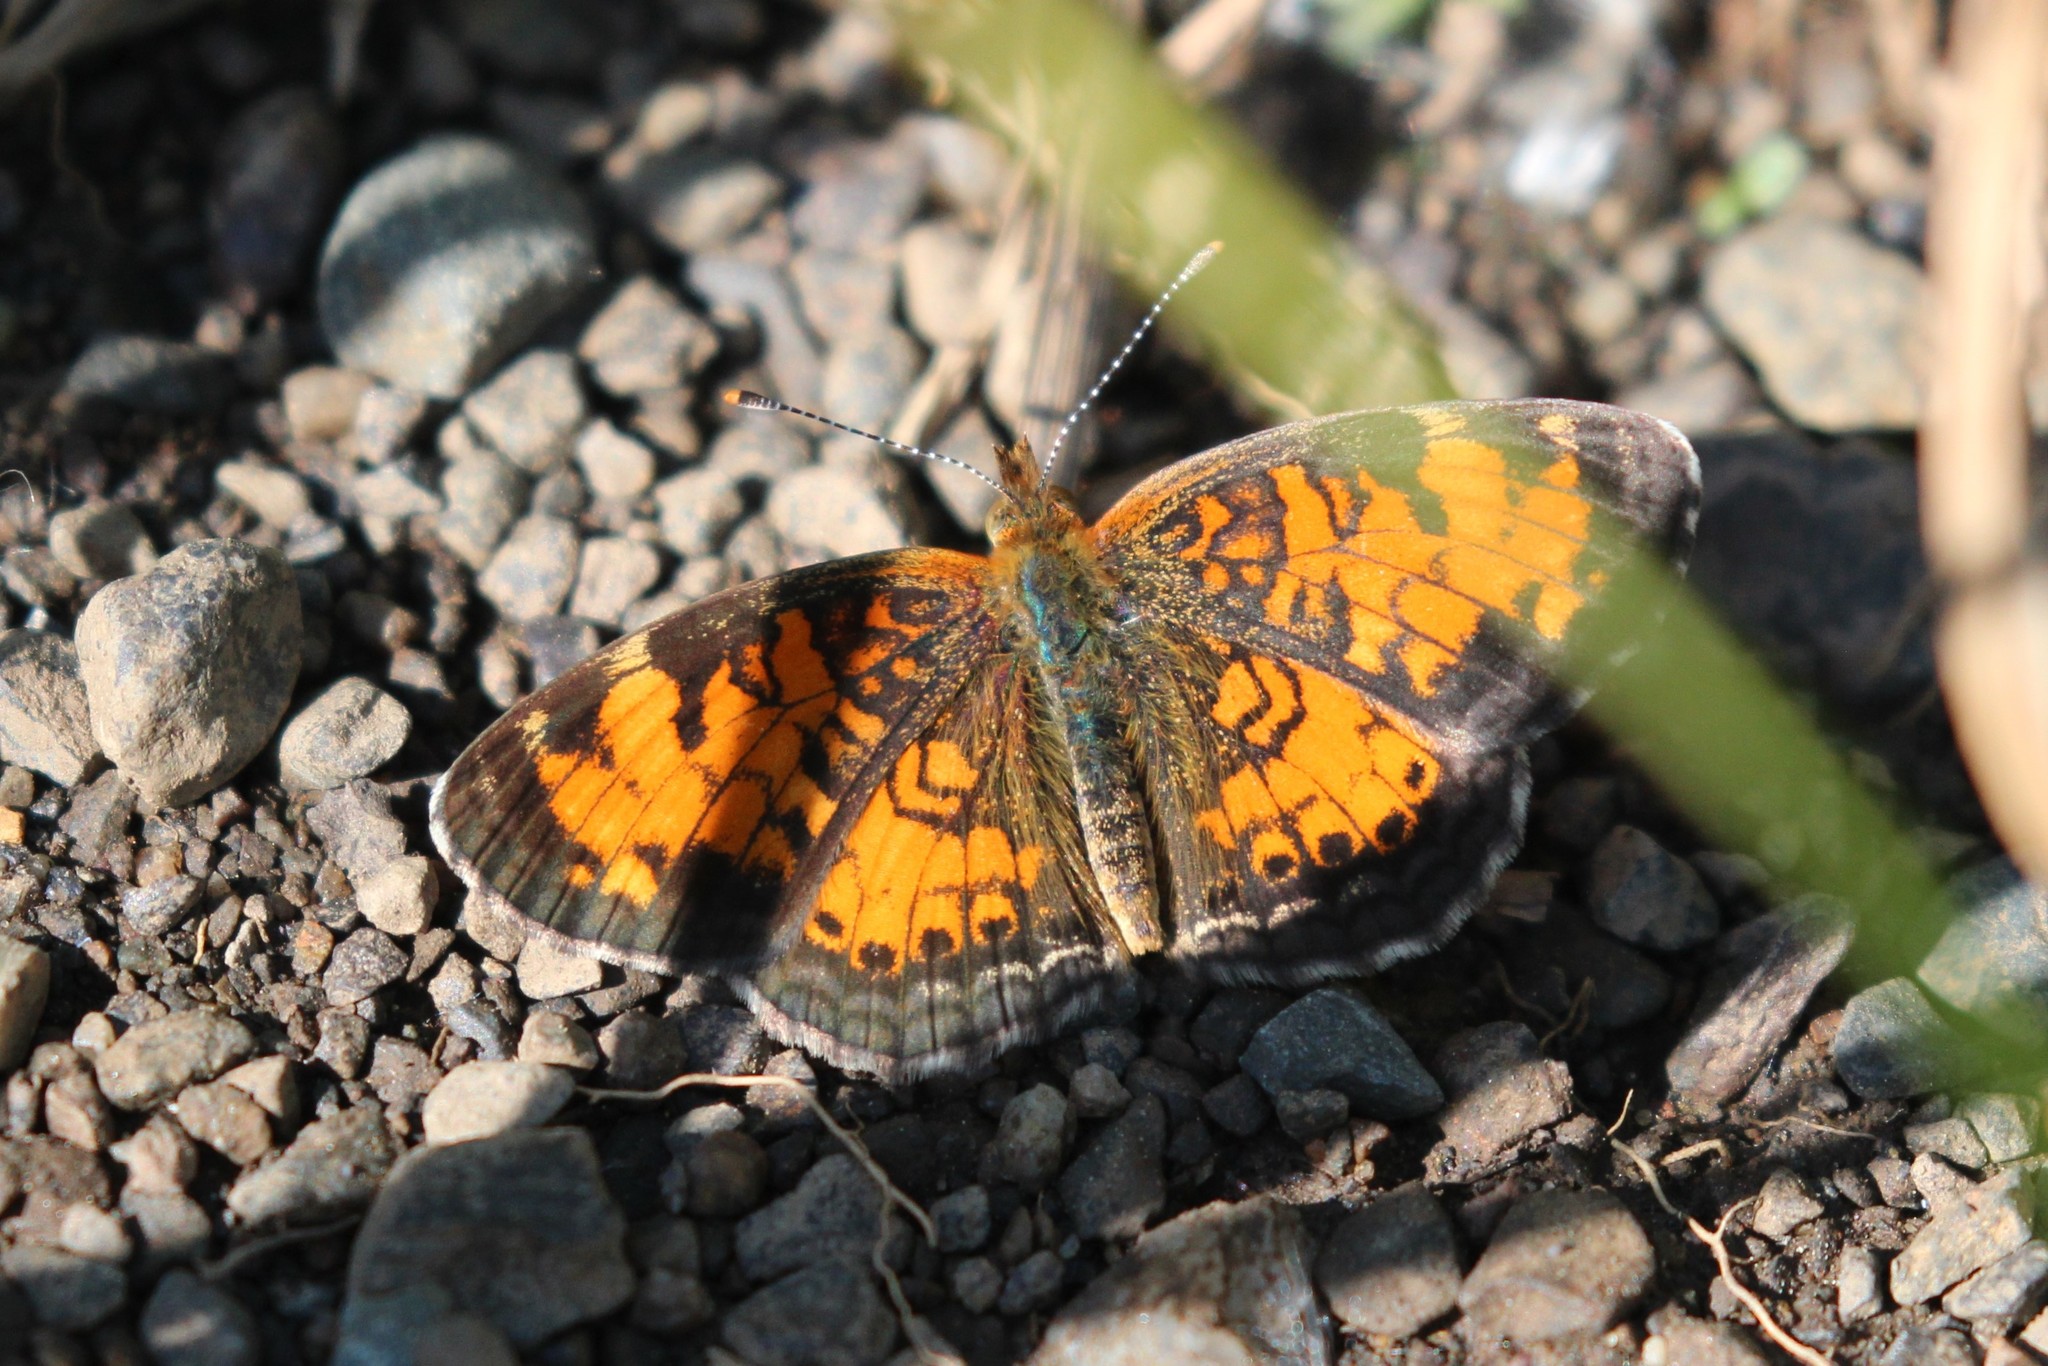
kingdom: Animalia
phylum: Arthropoda
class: Insecta
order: Lepidoptera
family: Nymphalidae
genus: Phyciodes
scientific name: Phyciodes tharos
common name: Pearl crescent
